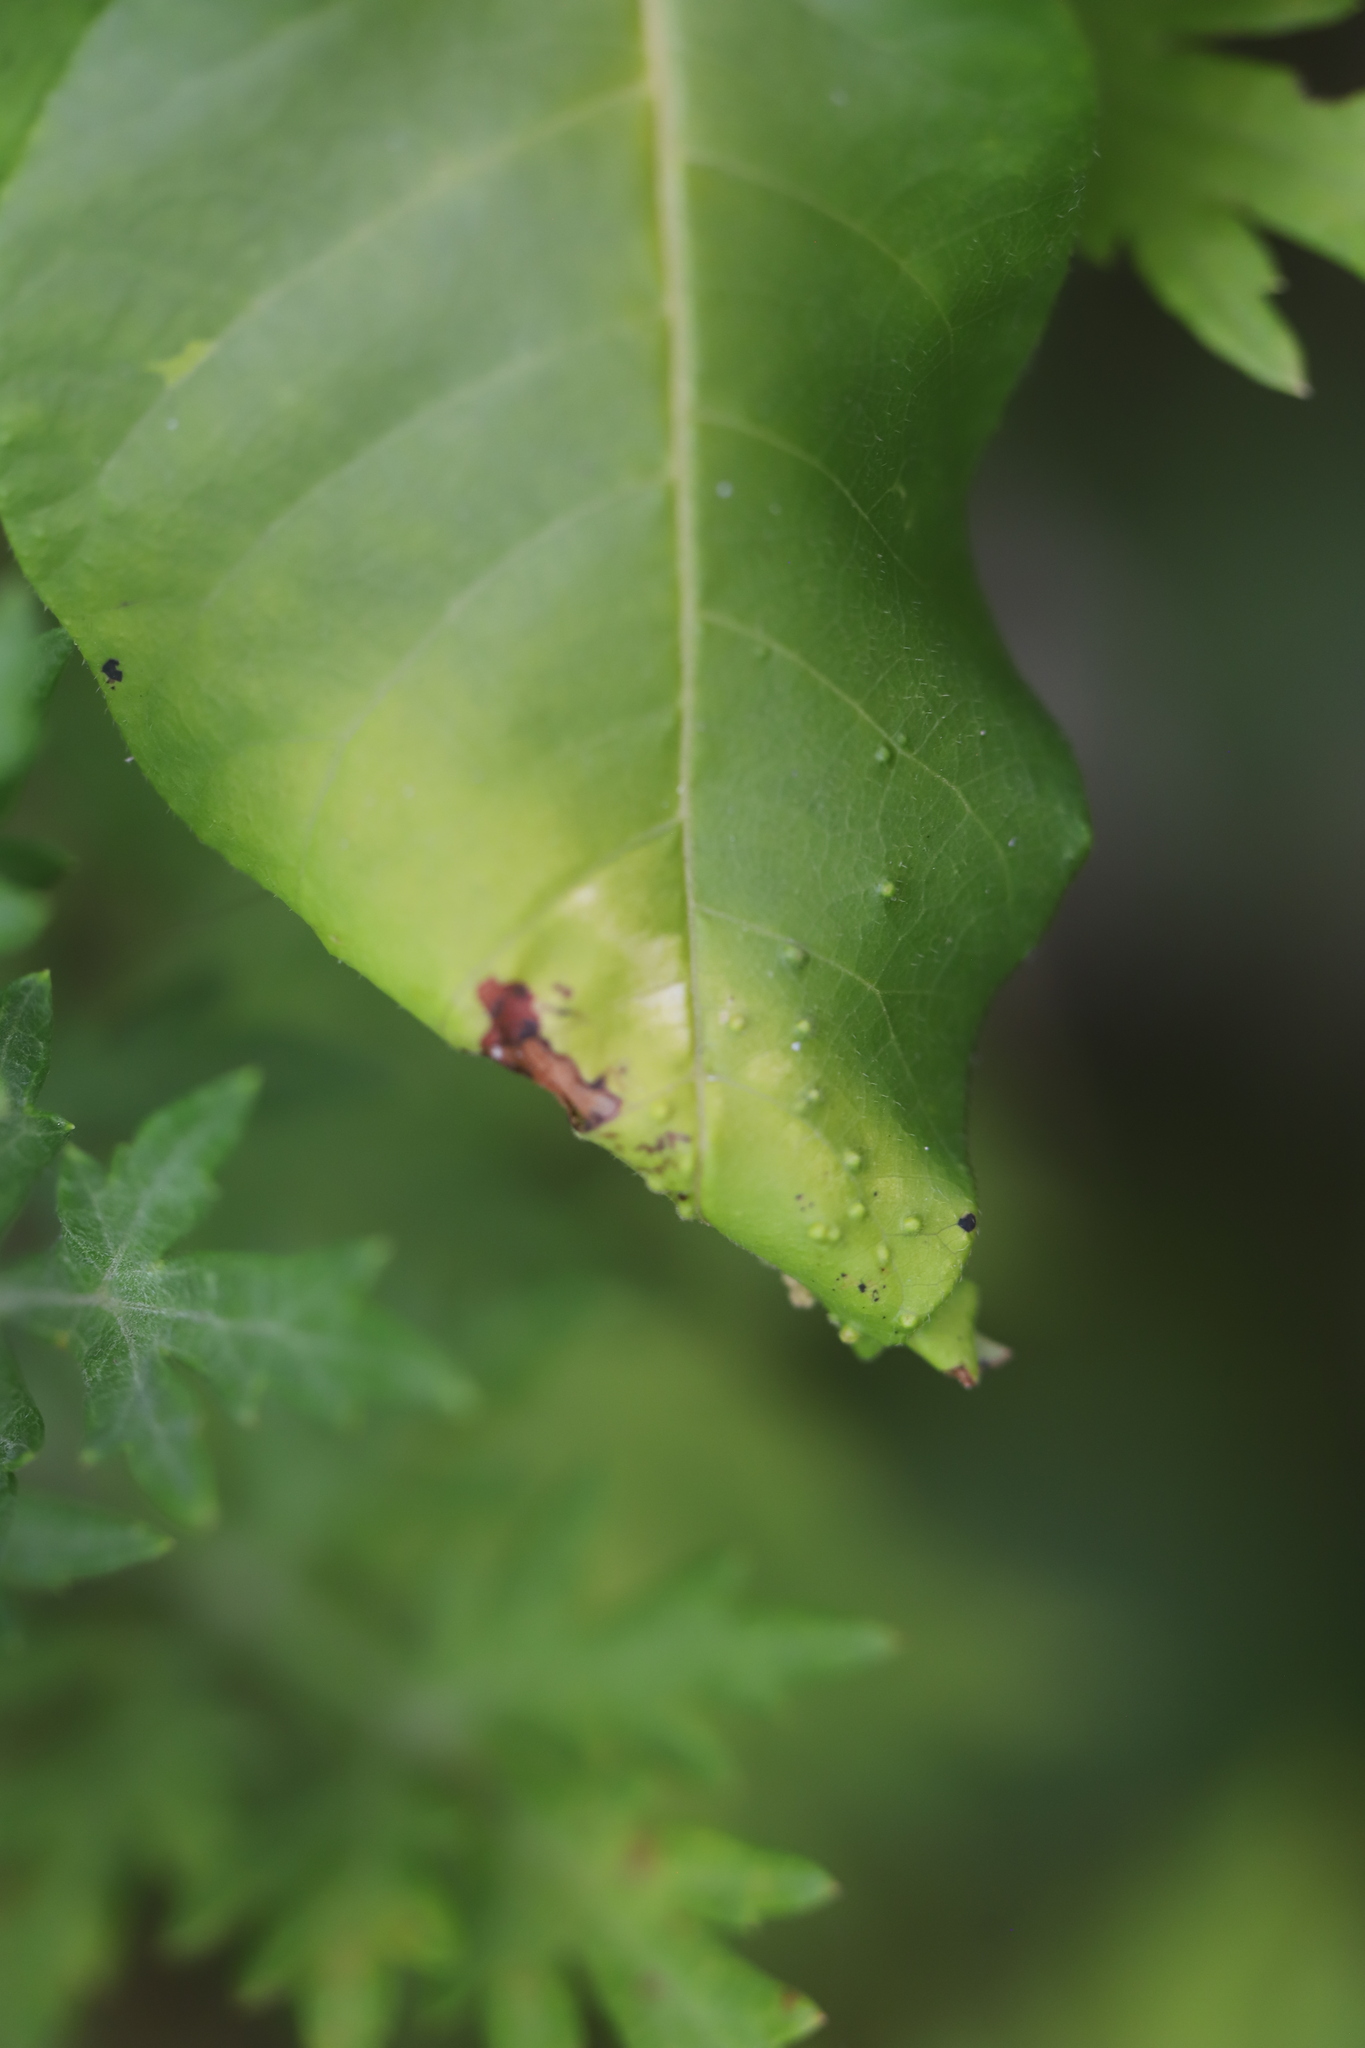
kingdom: Animalia
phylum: Arthropoda
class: Arachnida
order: Trombidiformes
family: Eriophyidae
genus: Aculops
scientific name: Aculops
